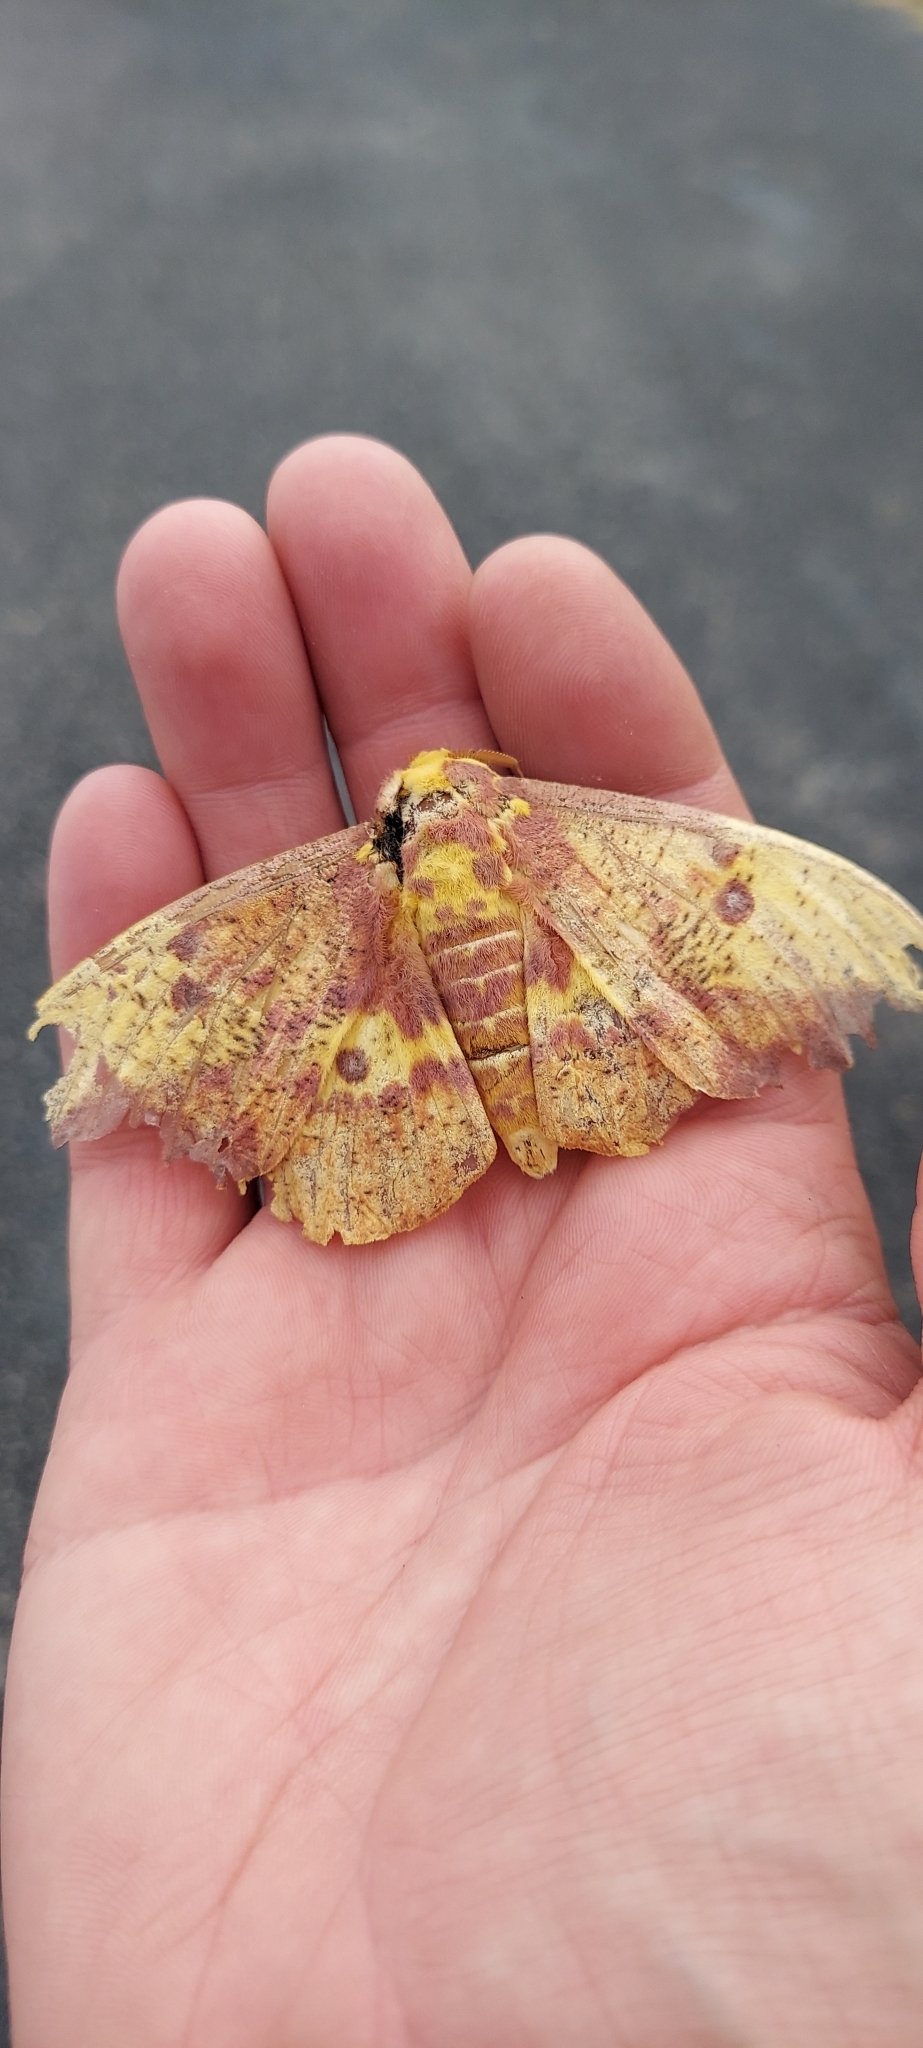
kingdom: Animalia
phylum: Arthropoda
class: Insecta
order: Lepidoptera
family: Saturniidae
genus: Eacles
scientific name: Eacles imperialis
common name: Imperial moth
